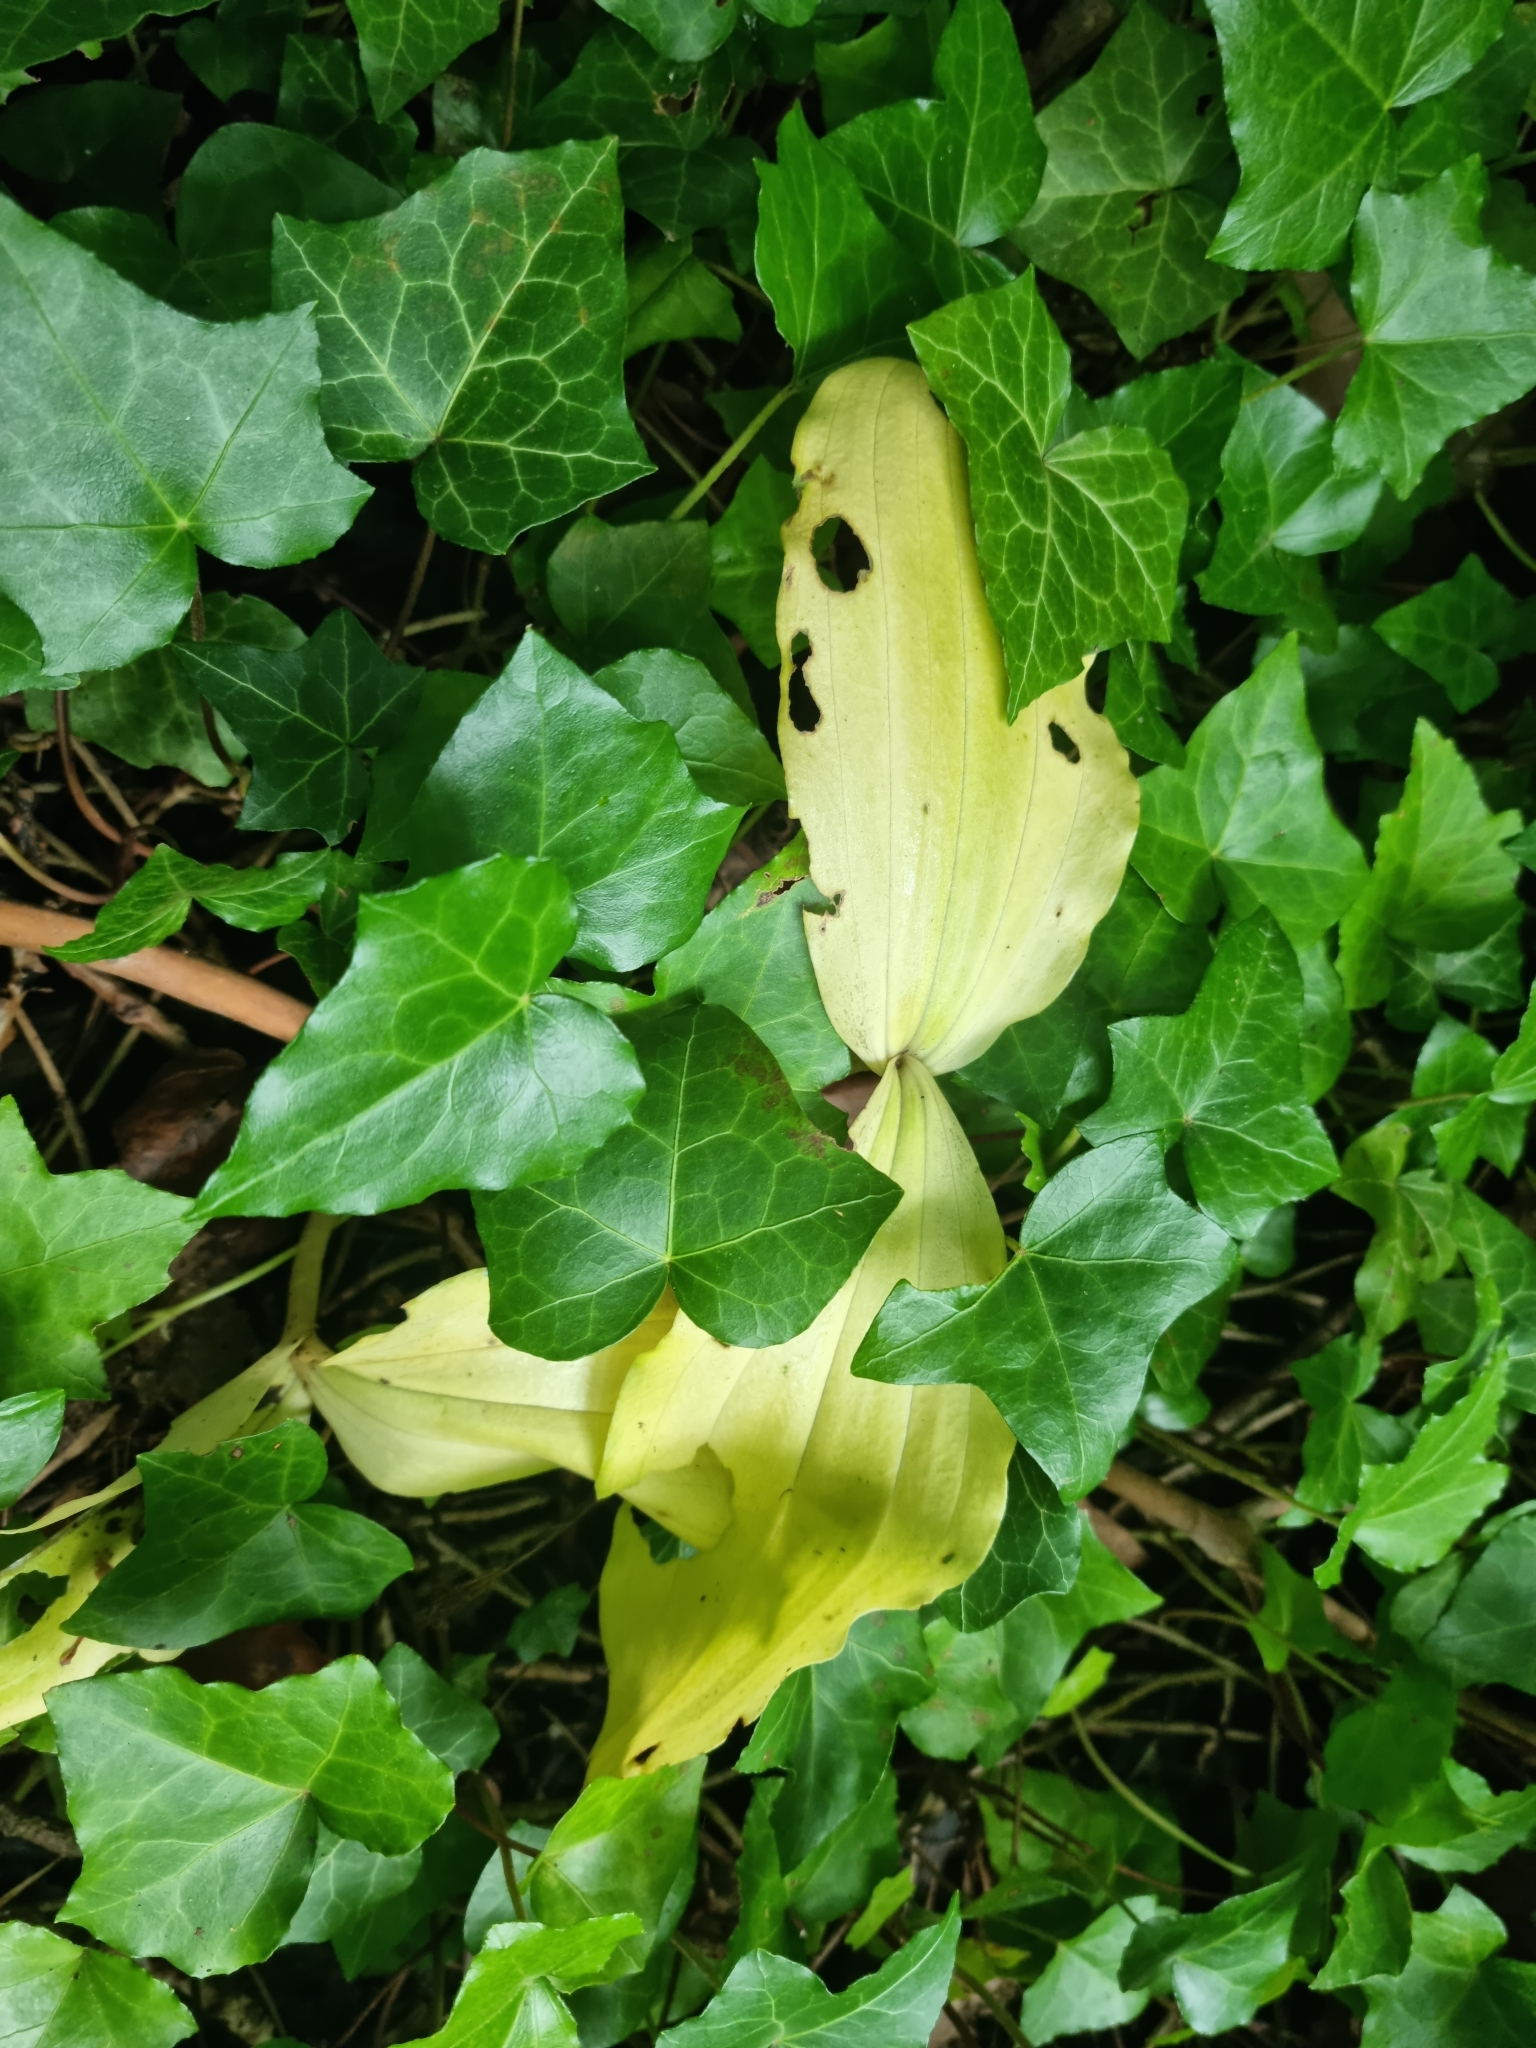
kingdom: Plantae
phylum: Tracheophyta
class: Liliopsida
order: Asparagales
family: Orchidaceae
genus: Neottia
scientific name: Neottia ovata
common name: Common twayblade
